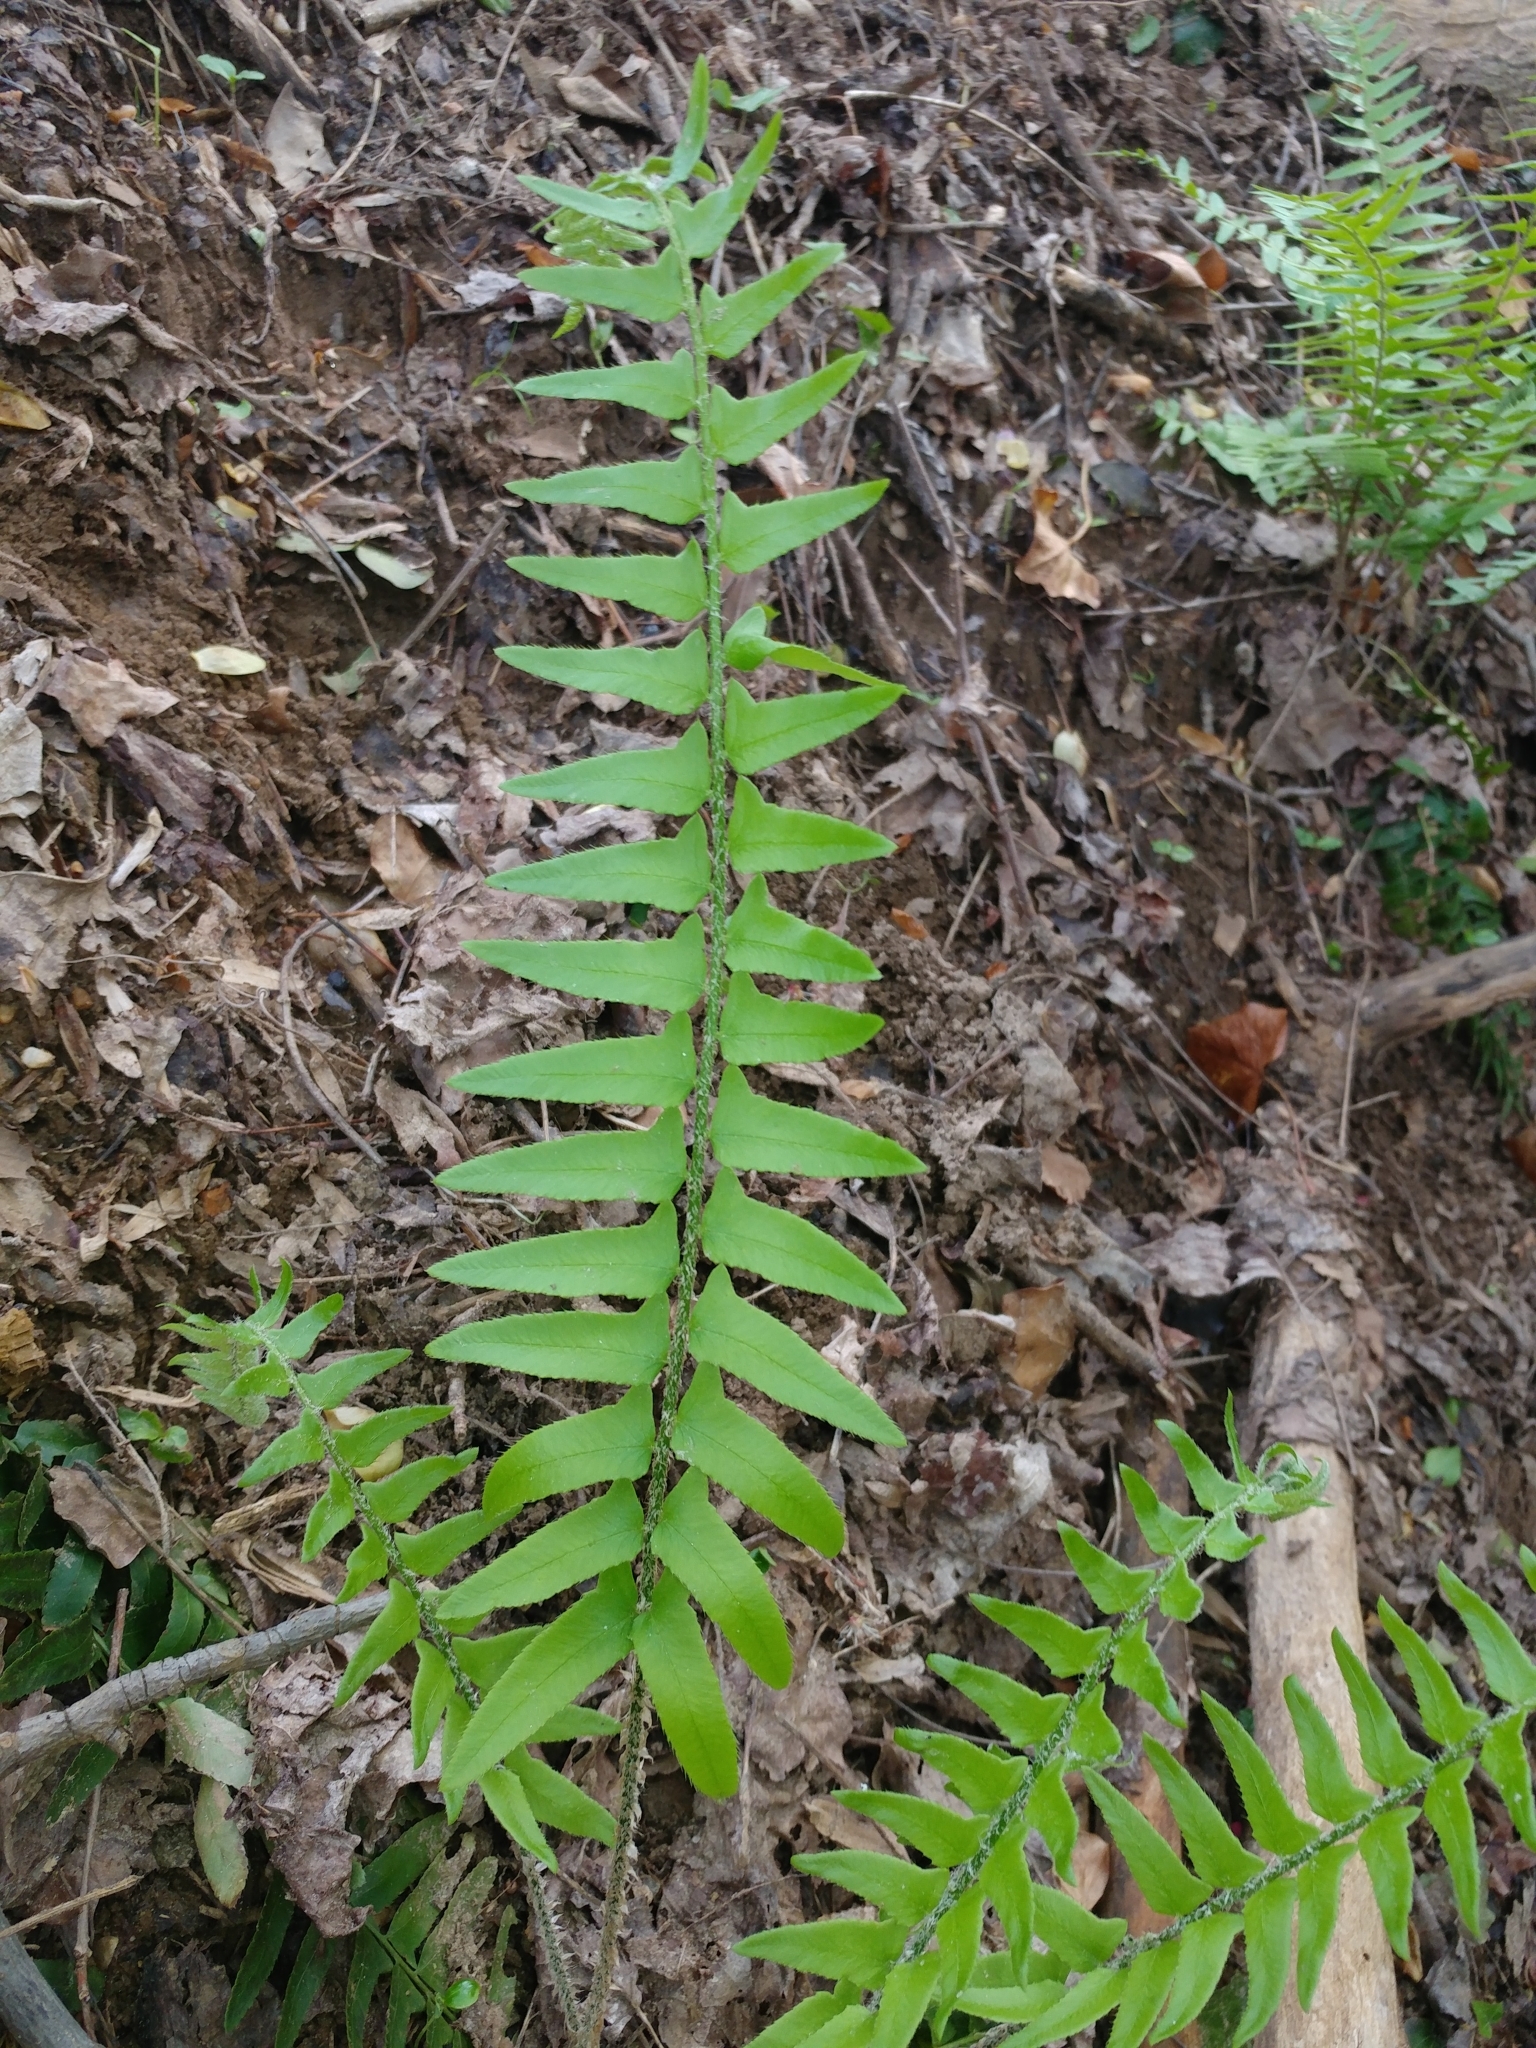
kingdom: Plantae
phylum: Tracheophyta
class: Polypodiopsida
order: Polypodiales
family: Dryopteridaceae
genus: Polystichum
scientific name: Polystichum acrostichoides
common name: Christmas fern
